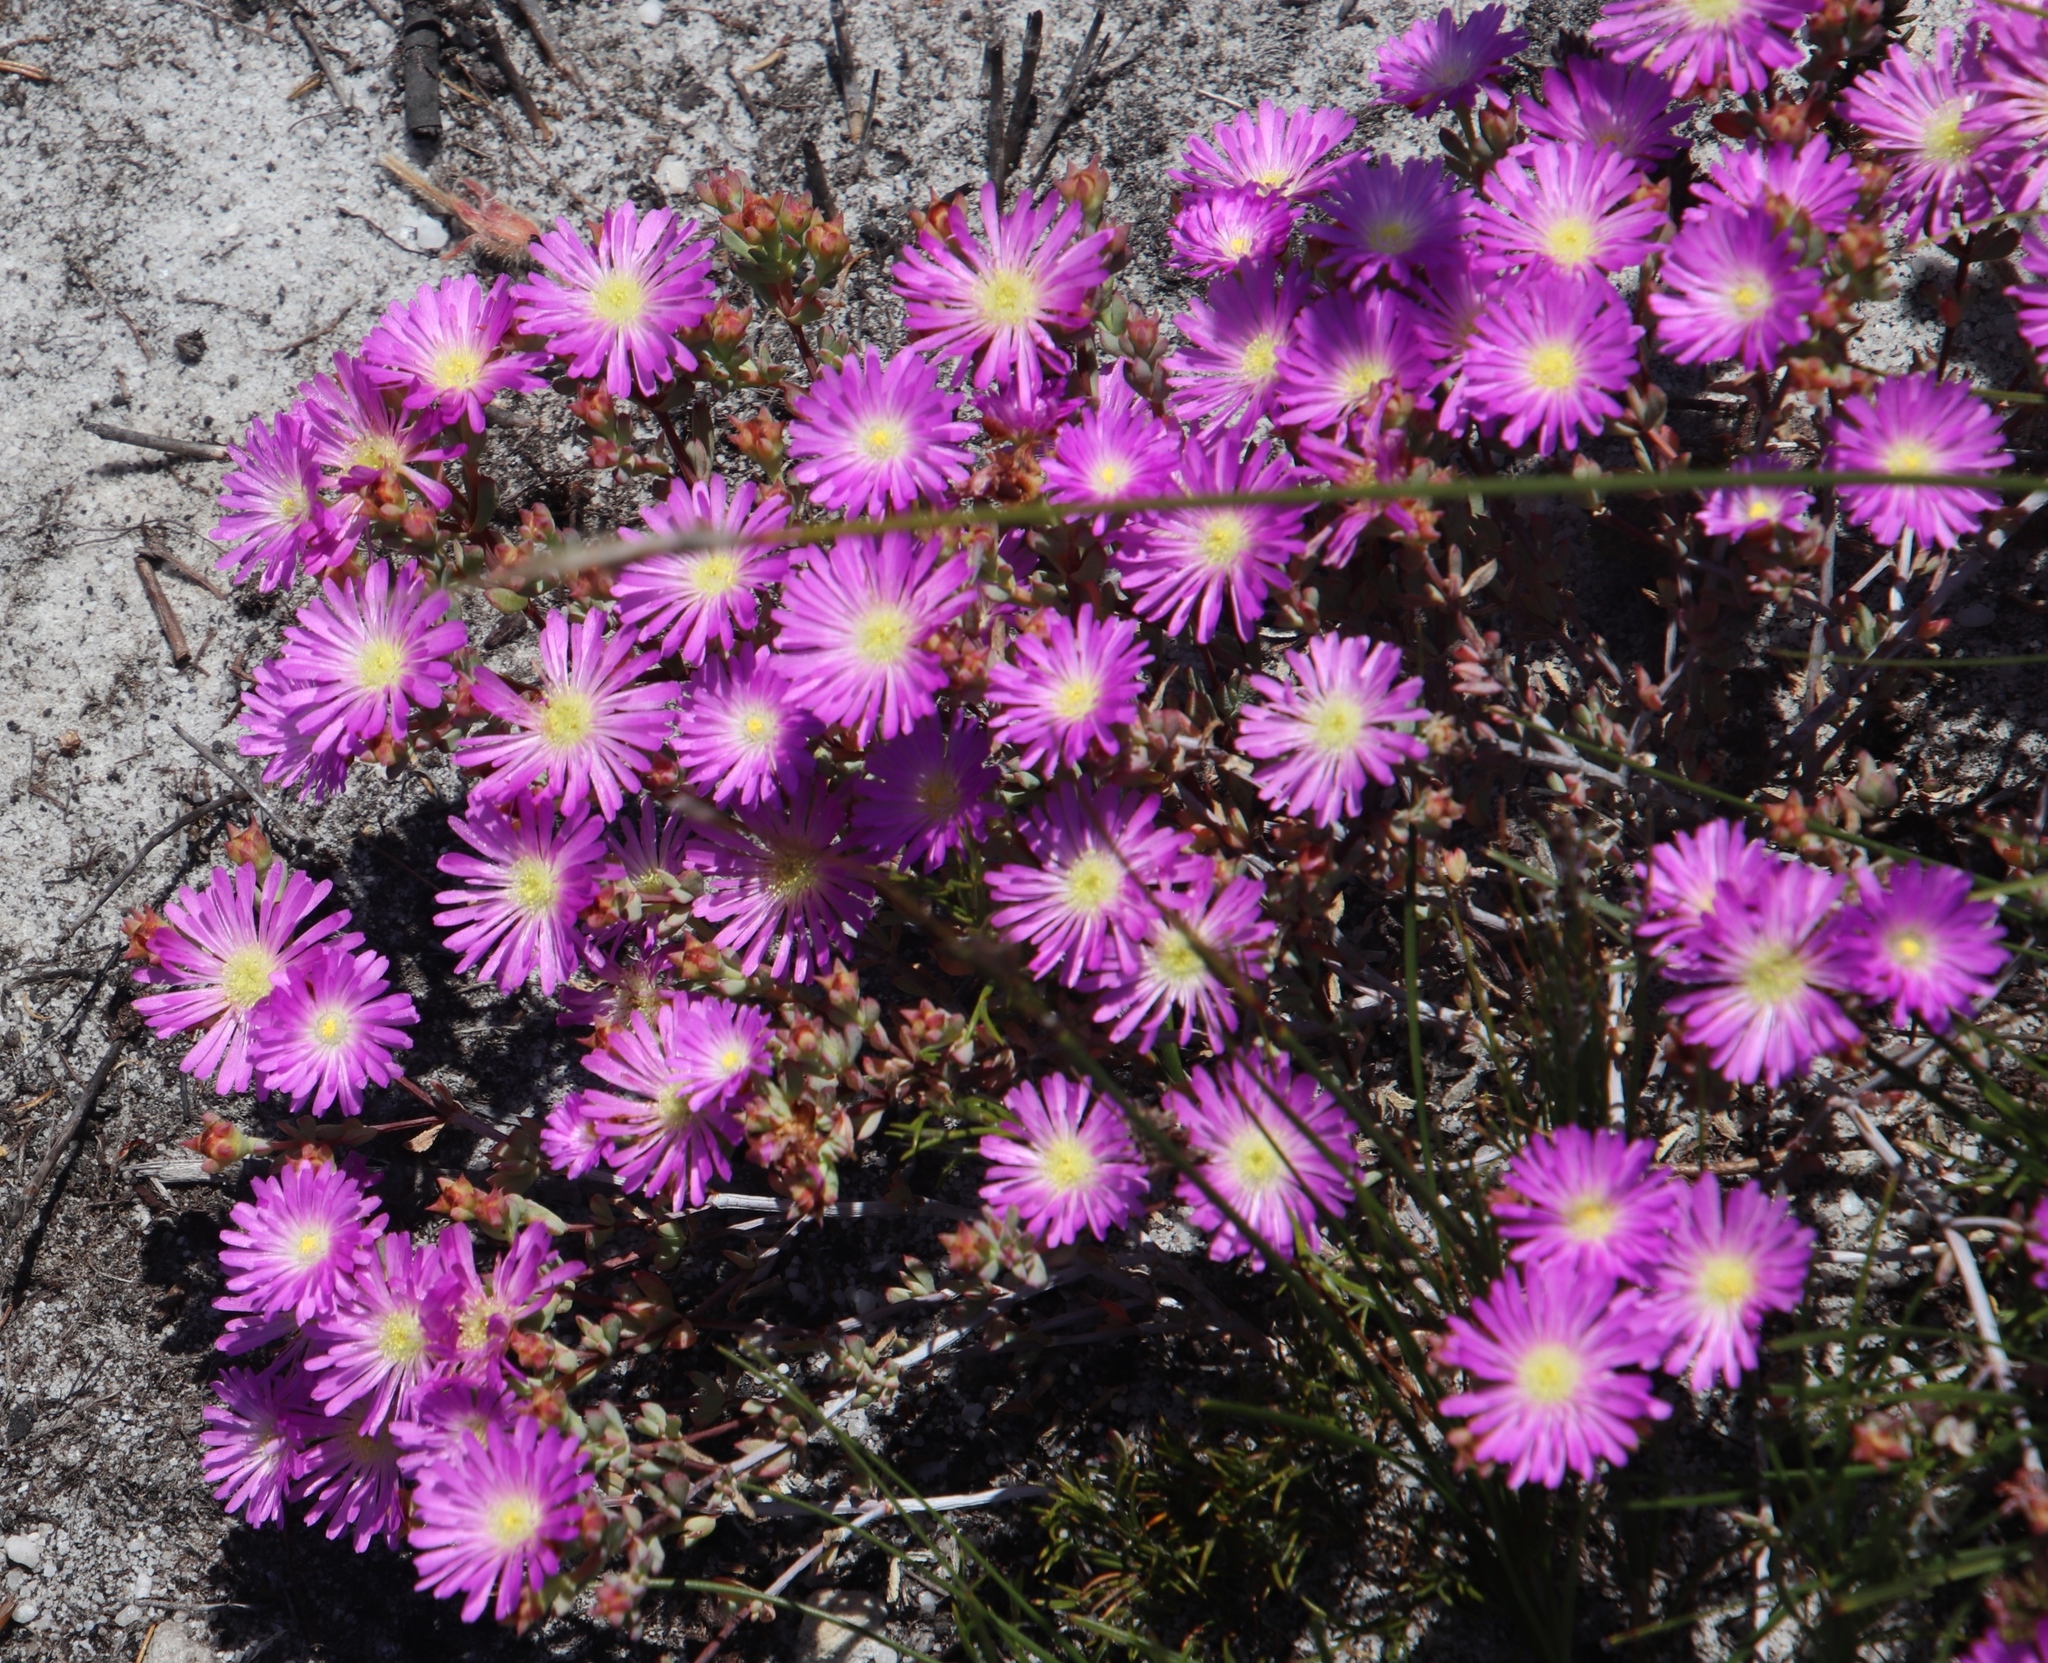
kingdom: Plantae
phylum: Tracheophyta
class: Magnoliopsida
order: Caryophyllales
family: Aizoaceae
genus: Lampranthus
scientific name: Lampranthus glomeratus
